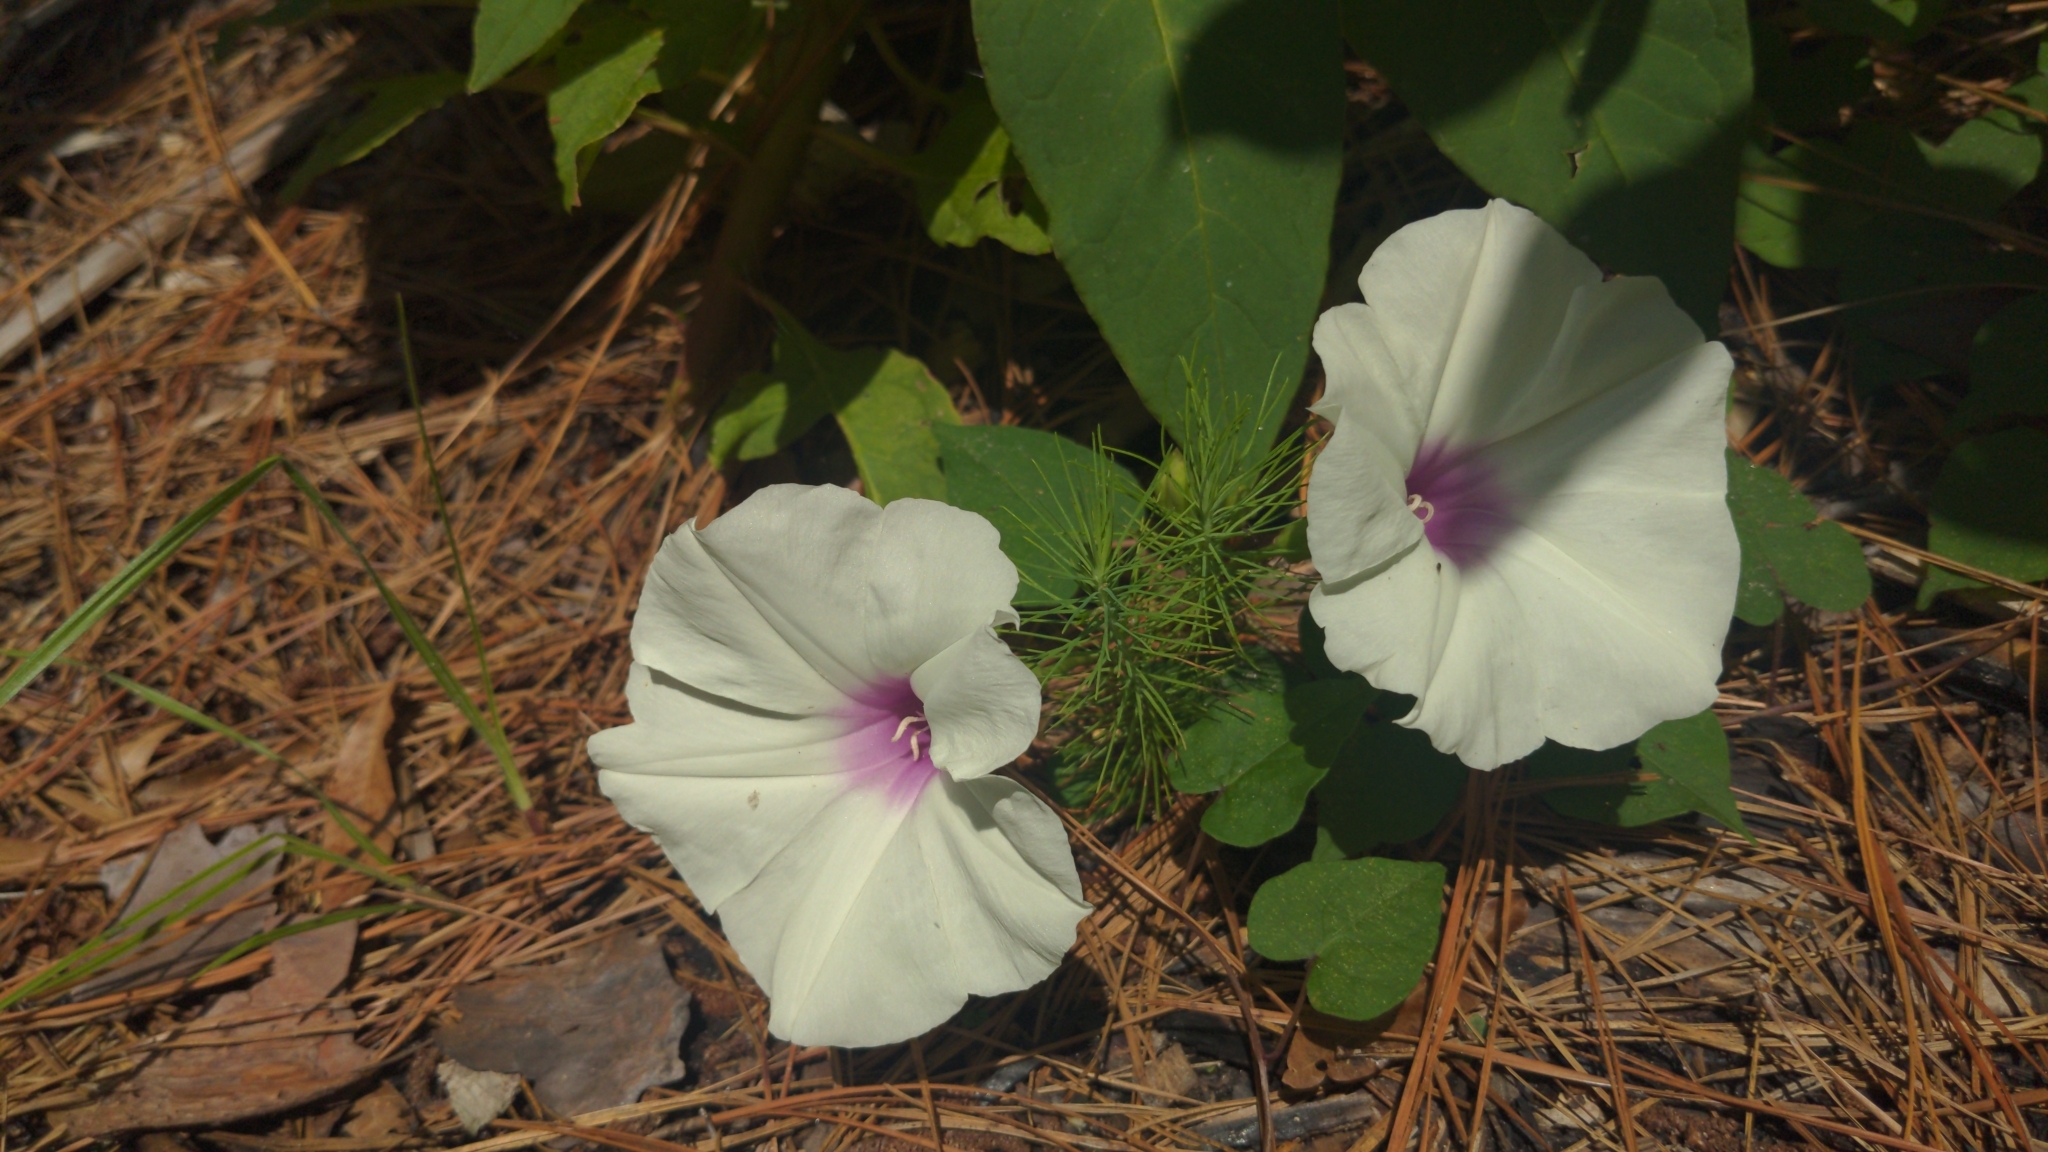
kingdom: Plantae
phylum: Tracheophyta
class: Magnoliopsida
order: Solanales
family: Convolvulaceae
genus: Ipomoea
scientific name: Ipomoea pandurata
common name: Man-of-the-earth
